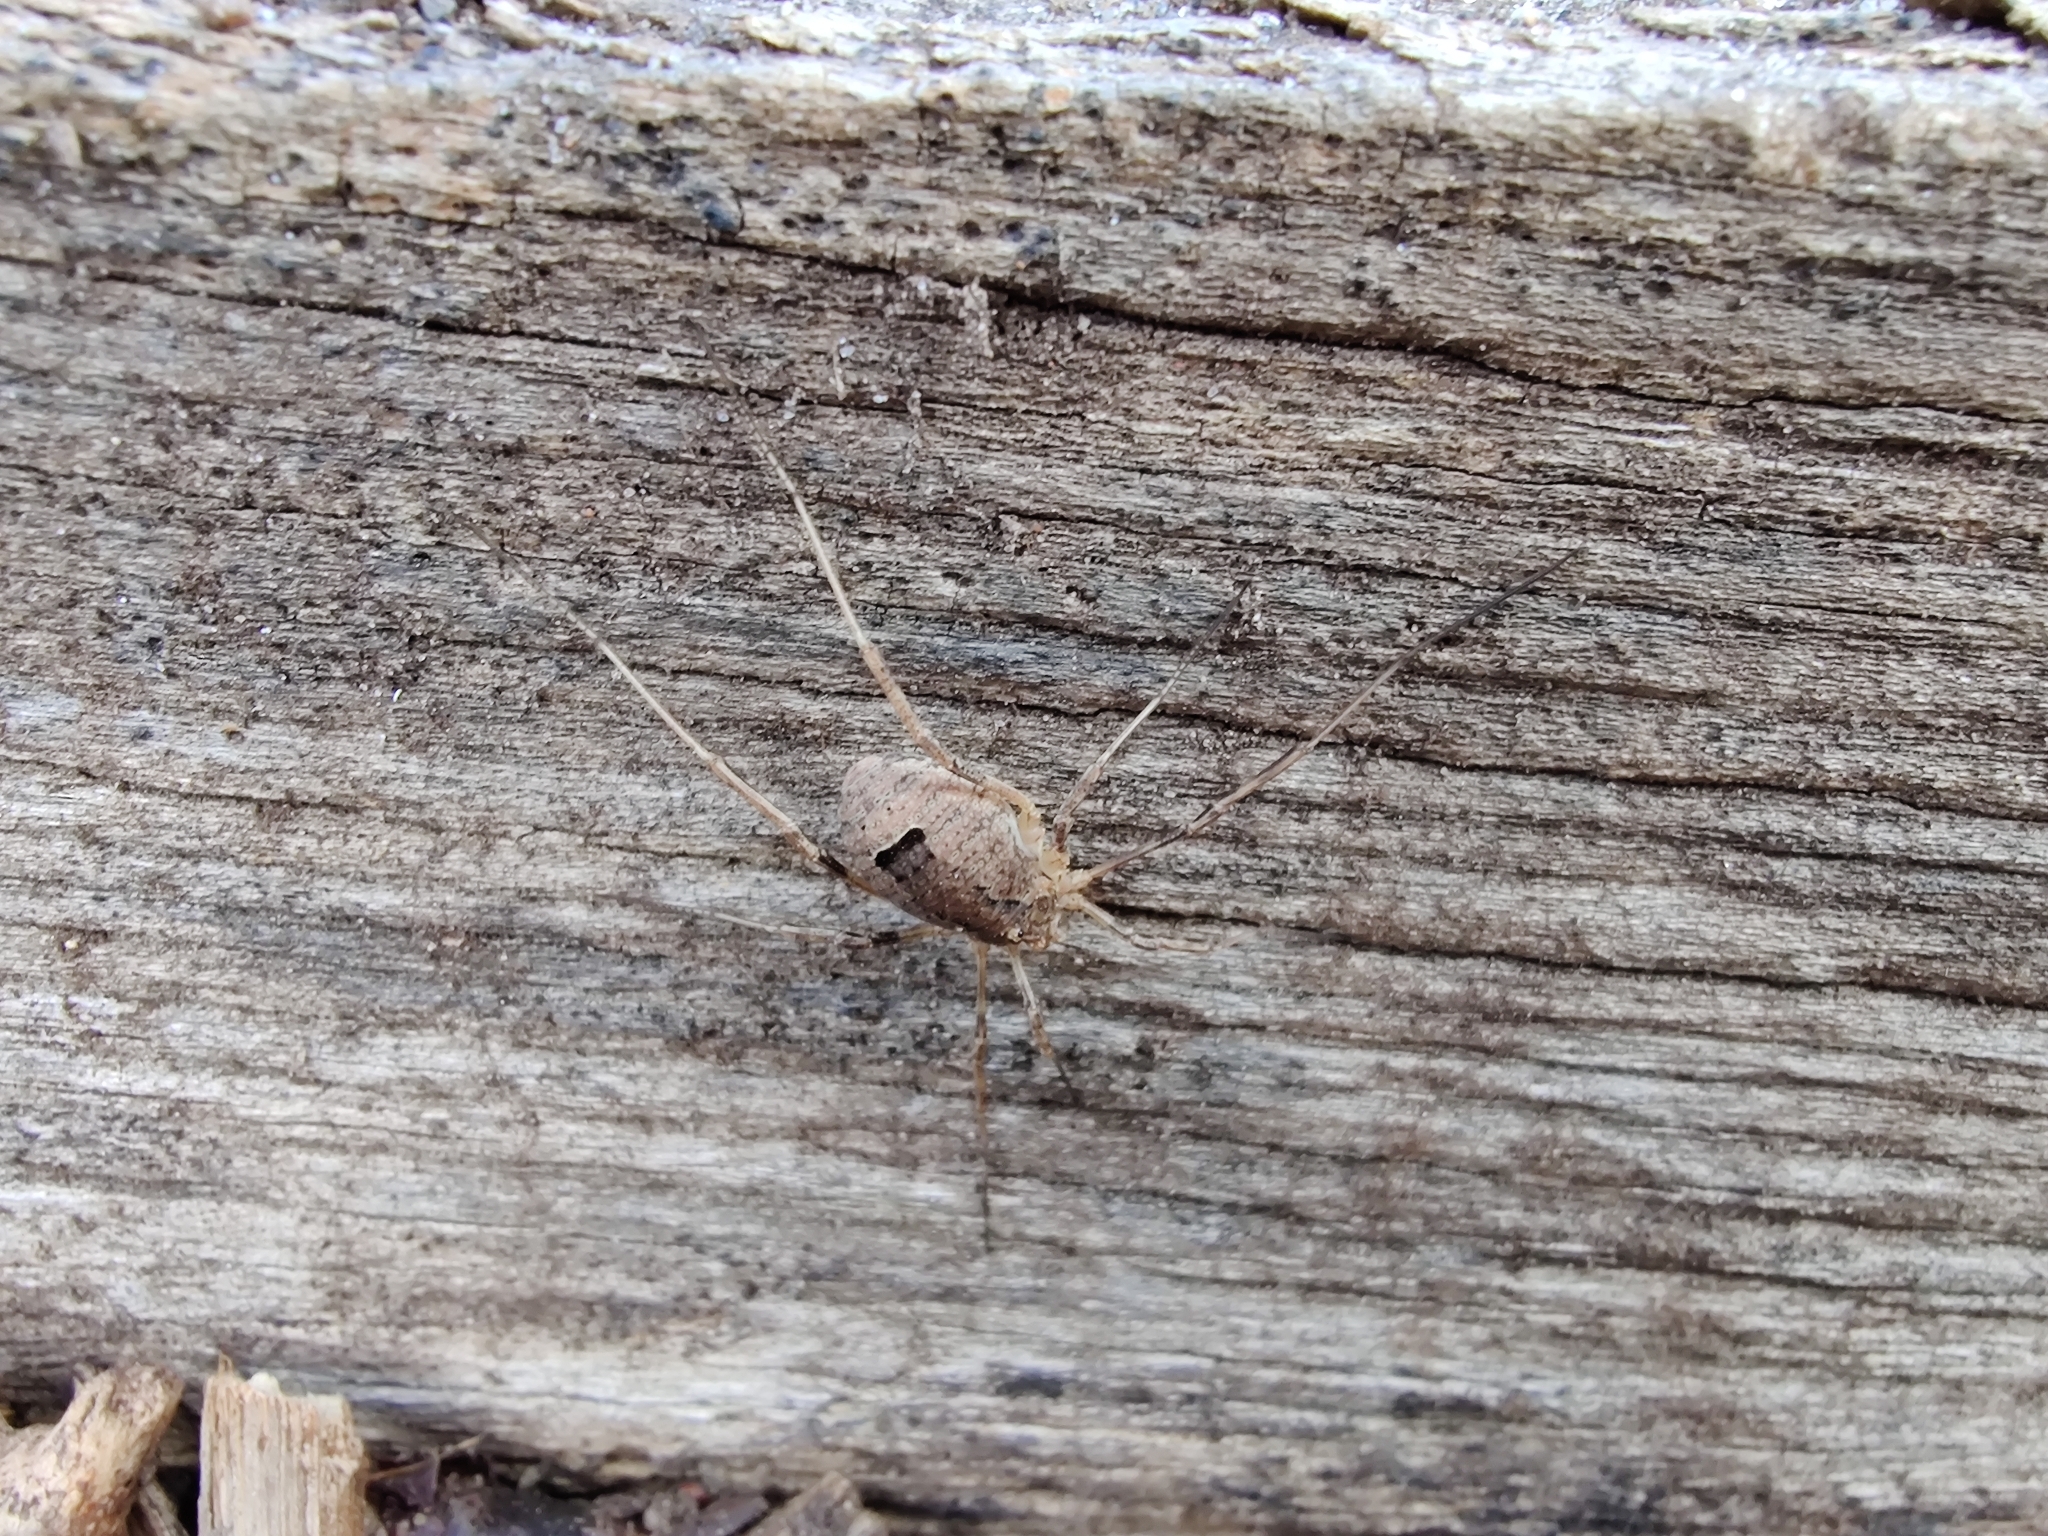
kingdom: Animalia
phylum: Arthropoda
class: Arachnida
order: Opiliones
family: Phalangiidae
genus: Odiellus
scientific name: Odiellus spinosus
